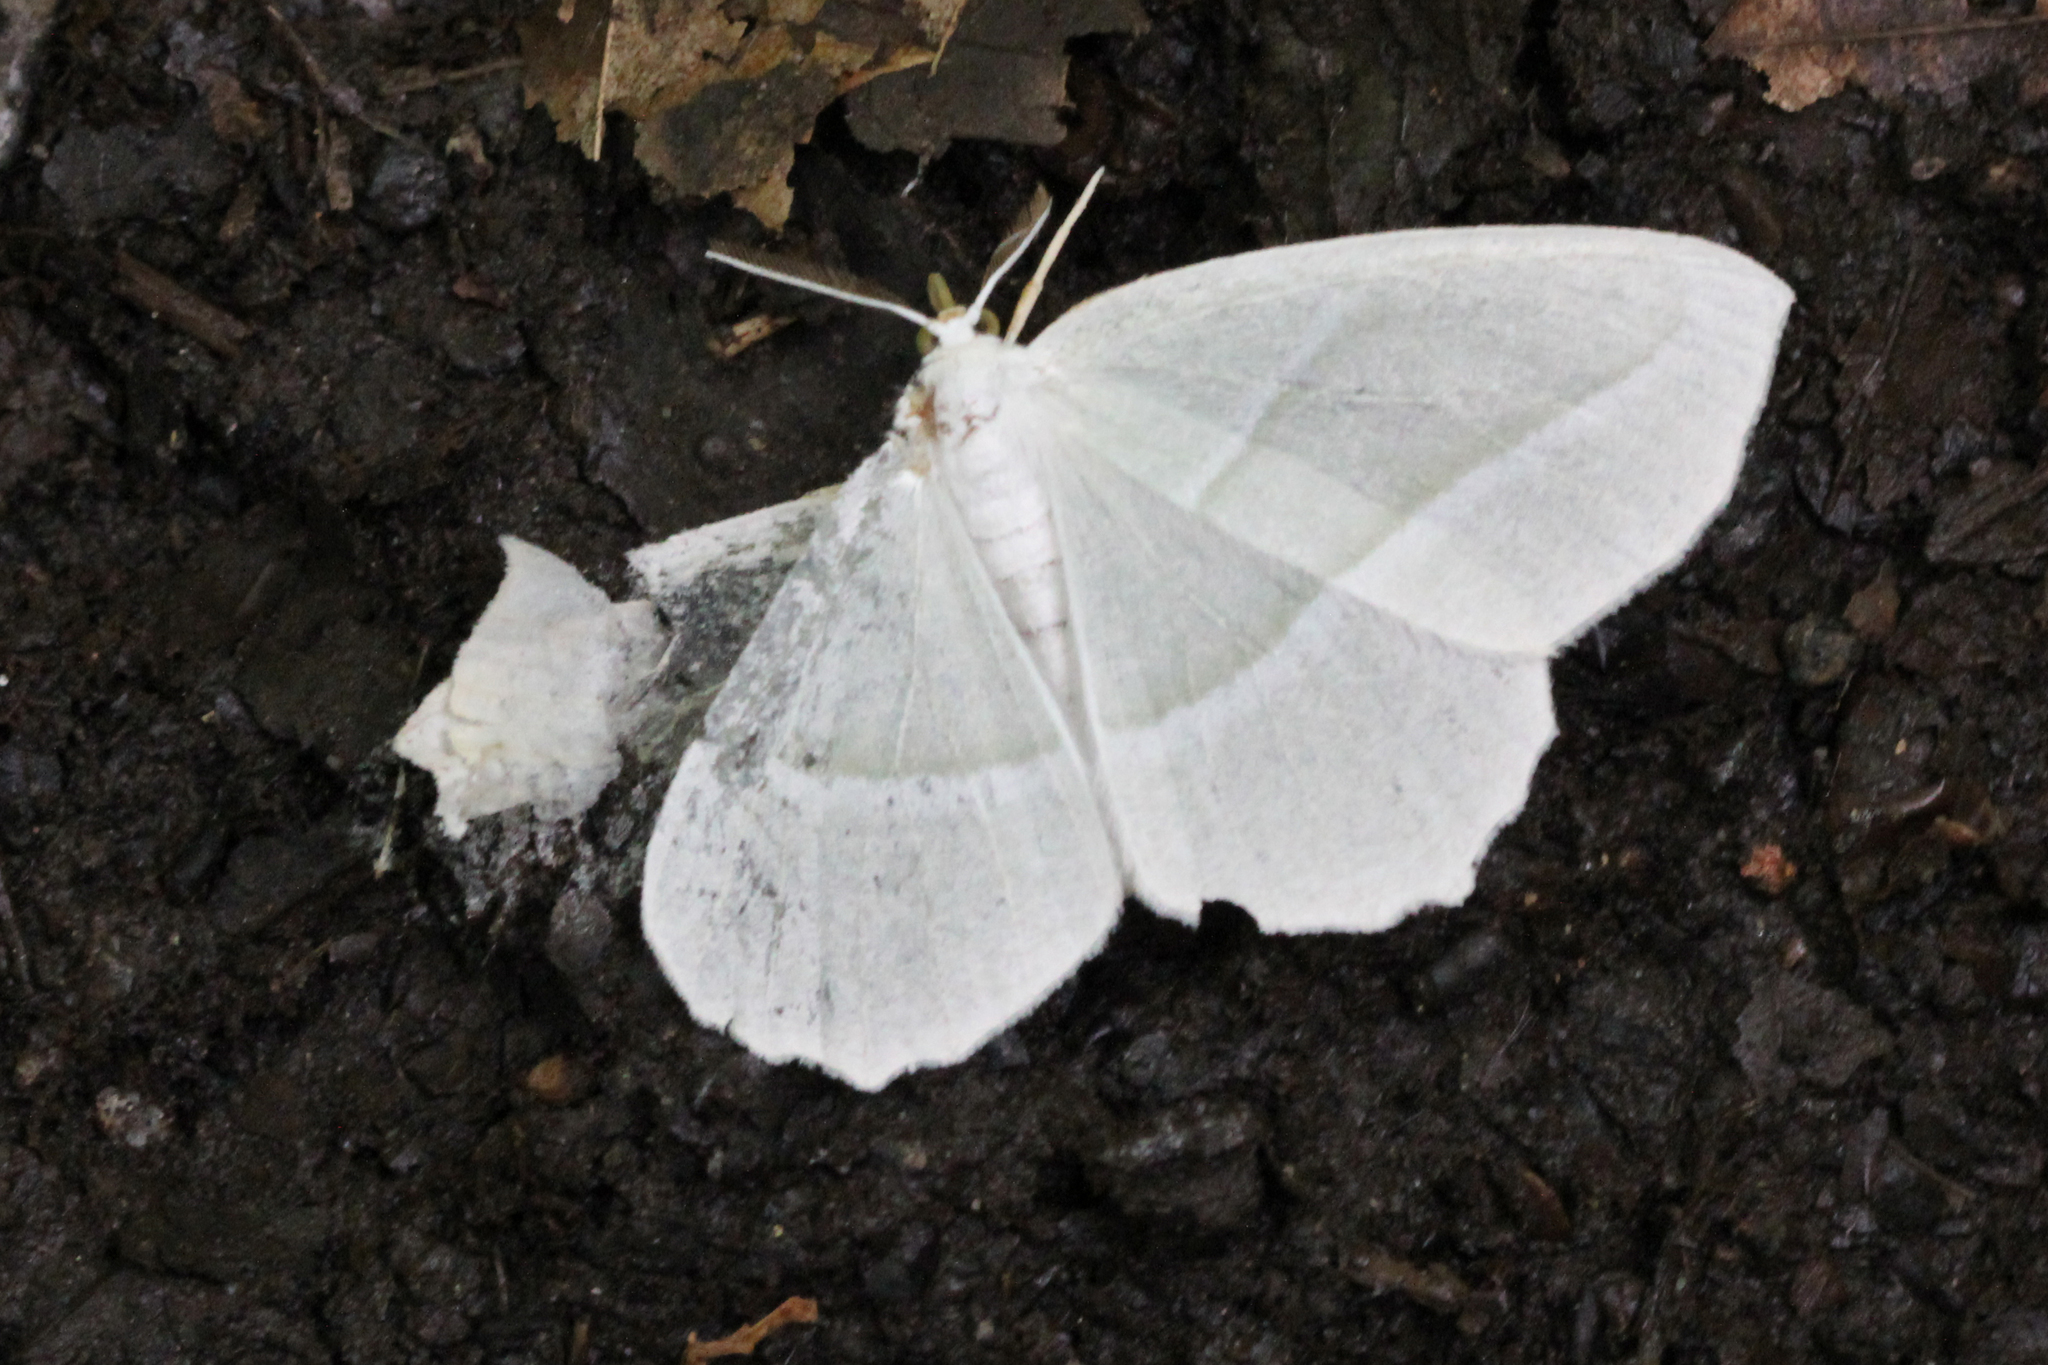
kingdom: Animalia
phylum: Arthropoda
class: Insecta
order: Lepidoptera
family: Geometridae
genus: Campaea
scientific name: Campaea perlata
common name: Fringed looper
